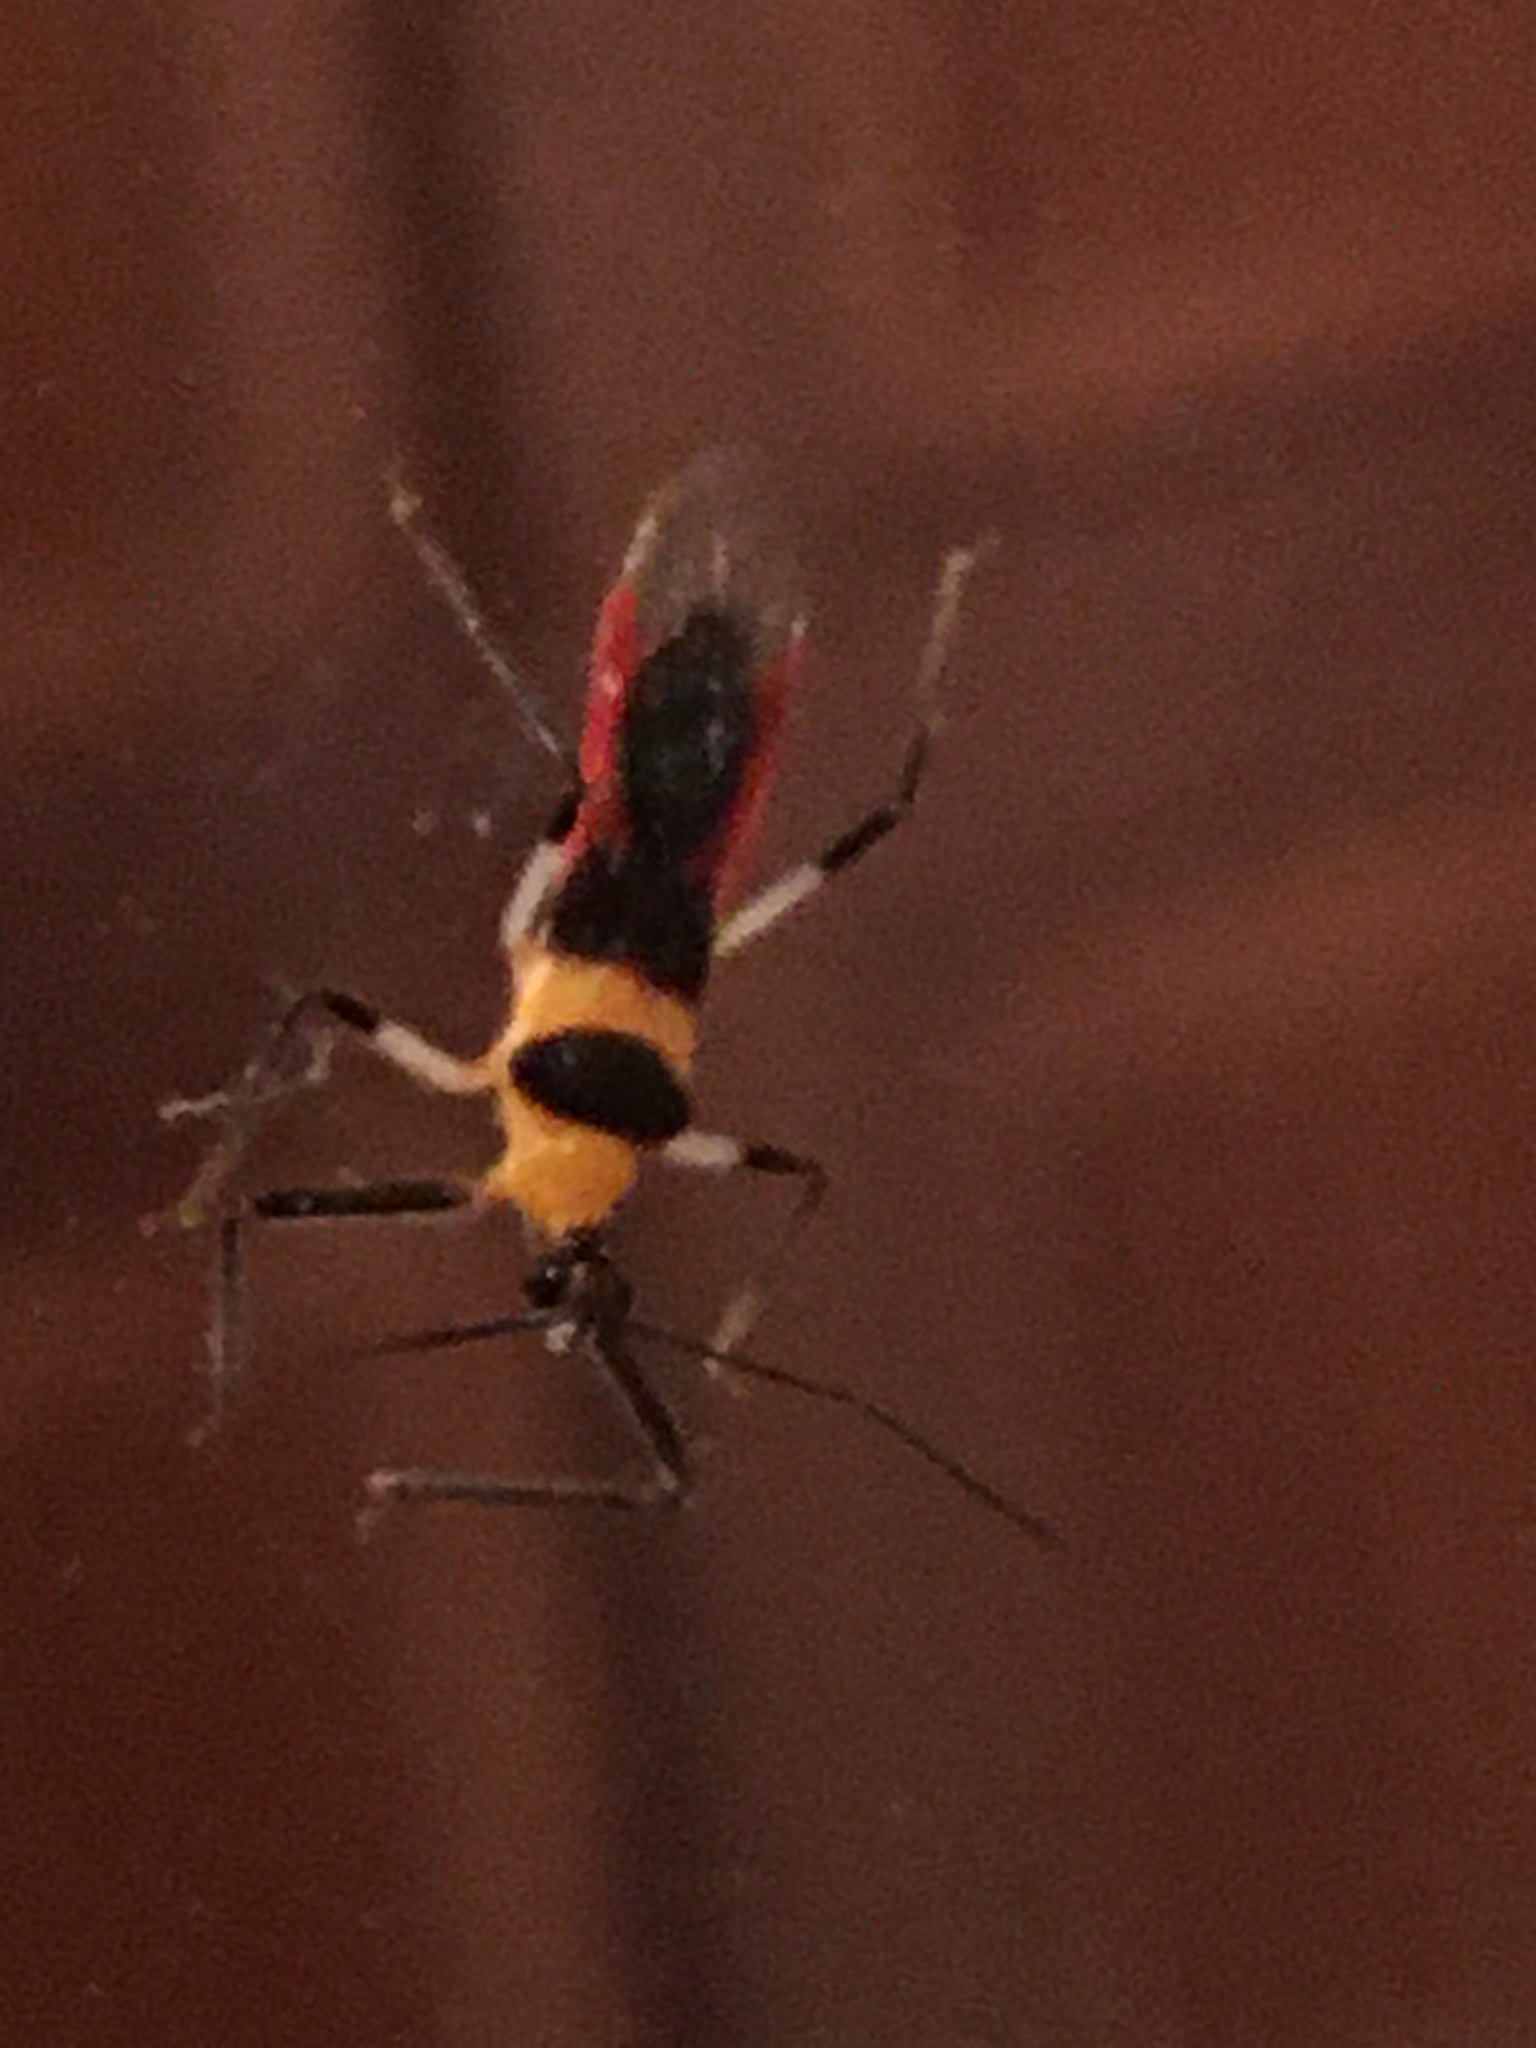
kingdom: Animalia
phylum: Arthropoda
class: Insecta
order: Hemiptera
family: Reduviidae
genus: Castolus
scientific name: Castolus tricolor
